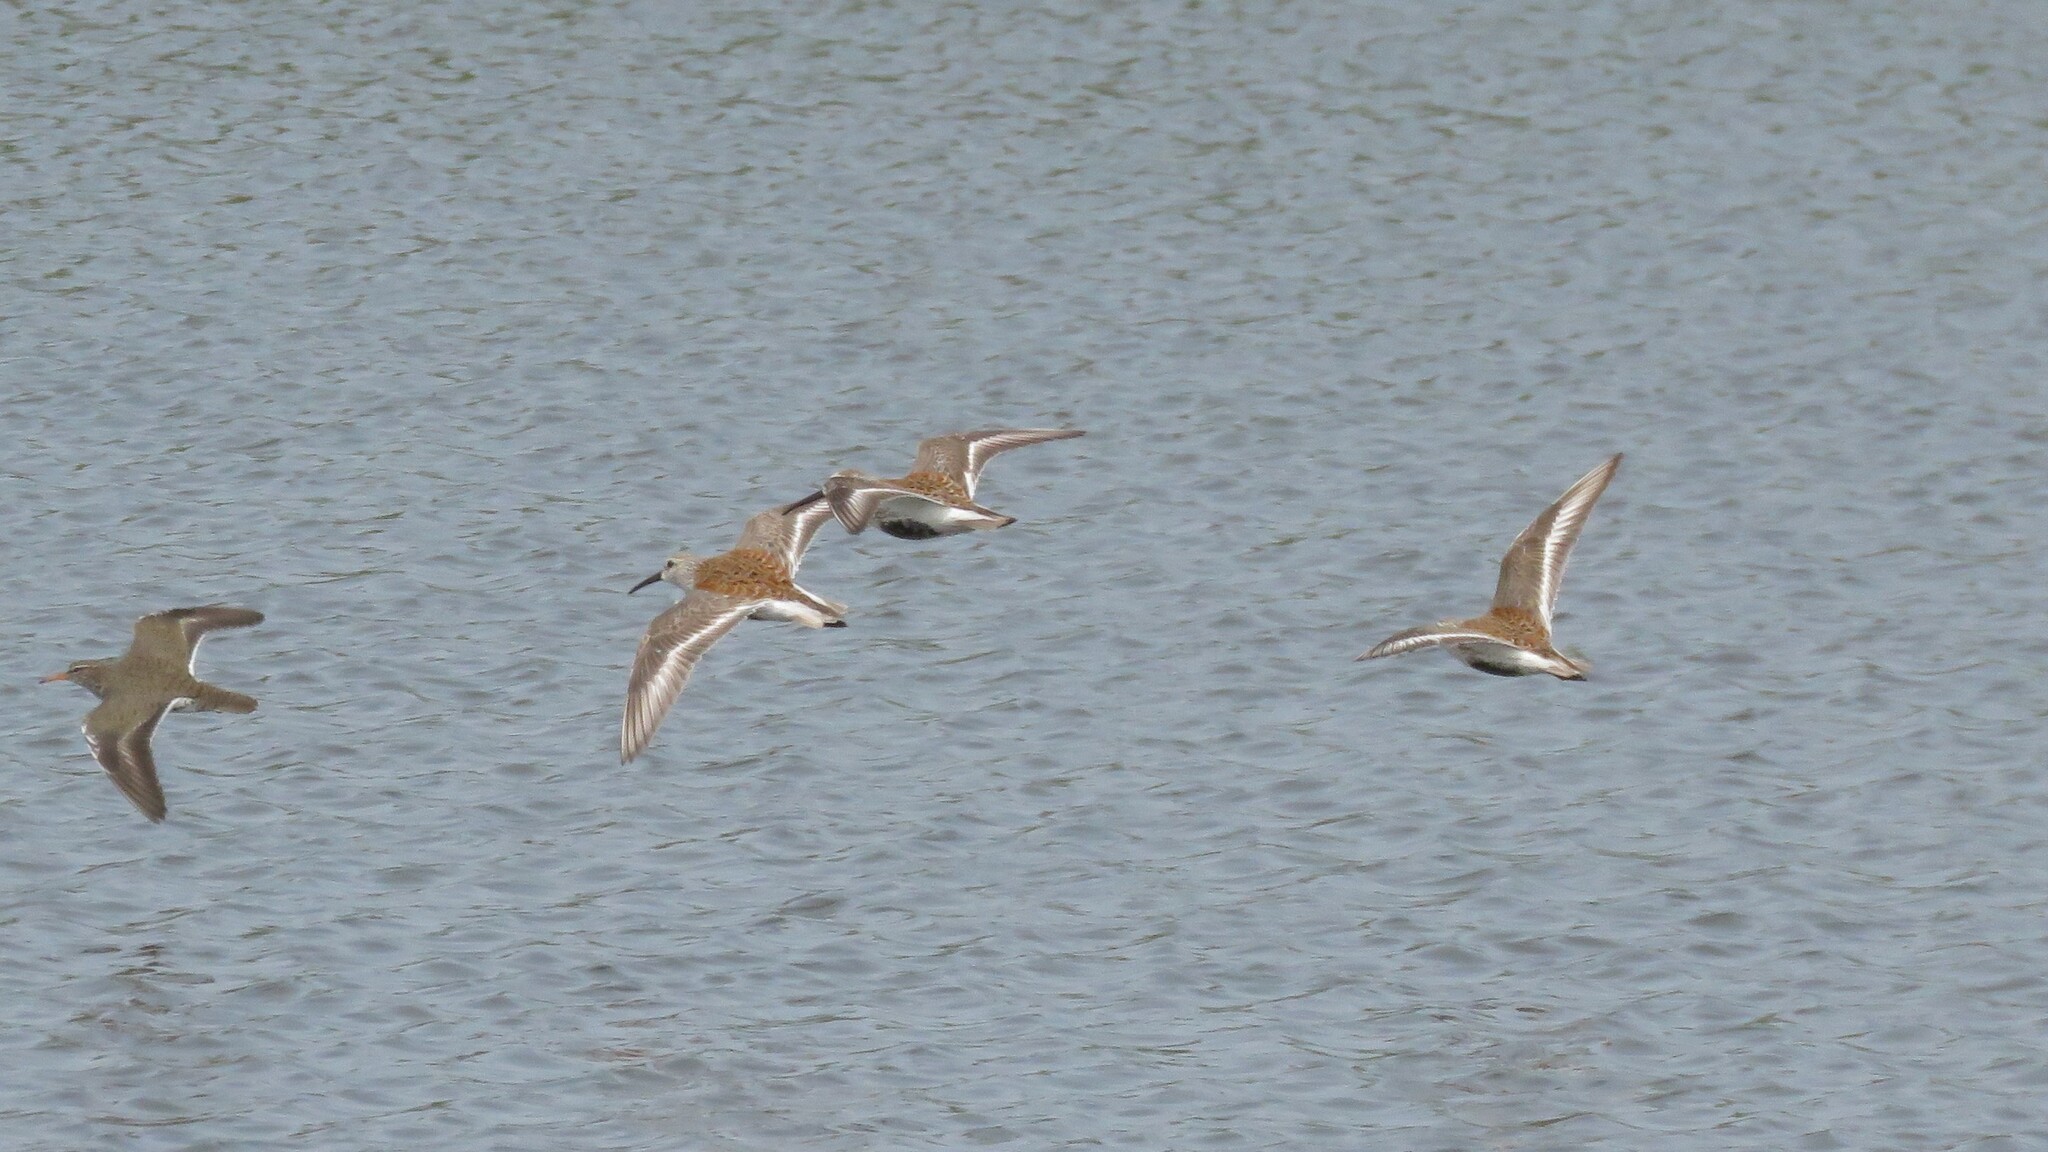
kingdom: Animalia
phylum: Chordata
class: Aves
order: Charadriiformes
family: Scolopacidae
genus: Calidris
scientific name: Calidris alpina
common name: Dunlin
